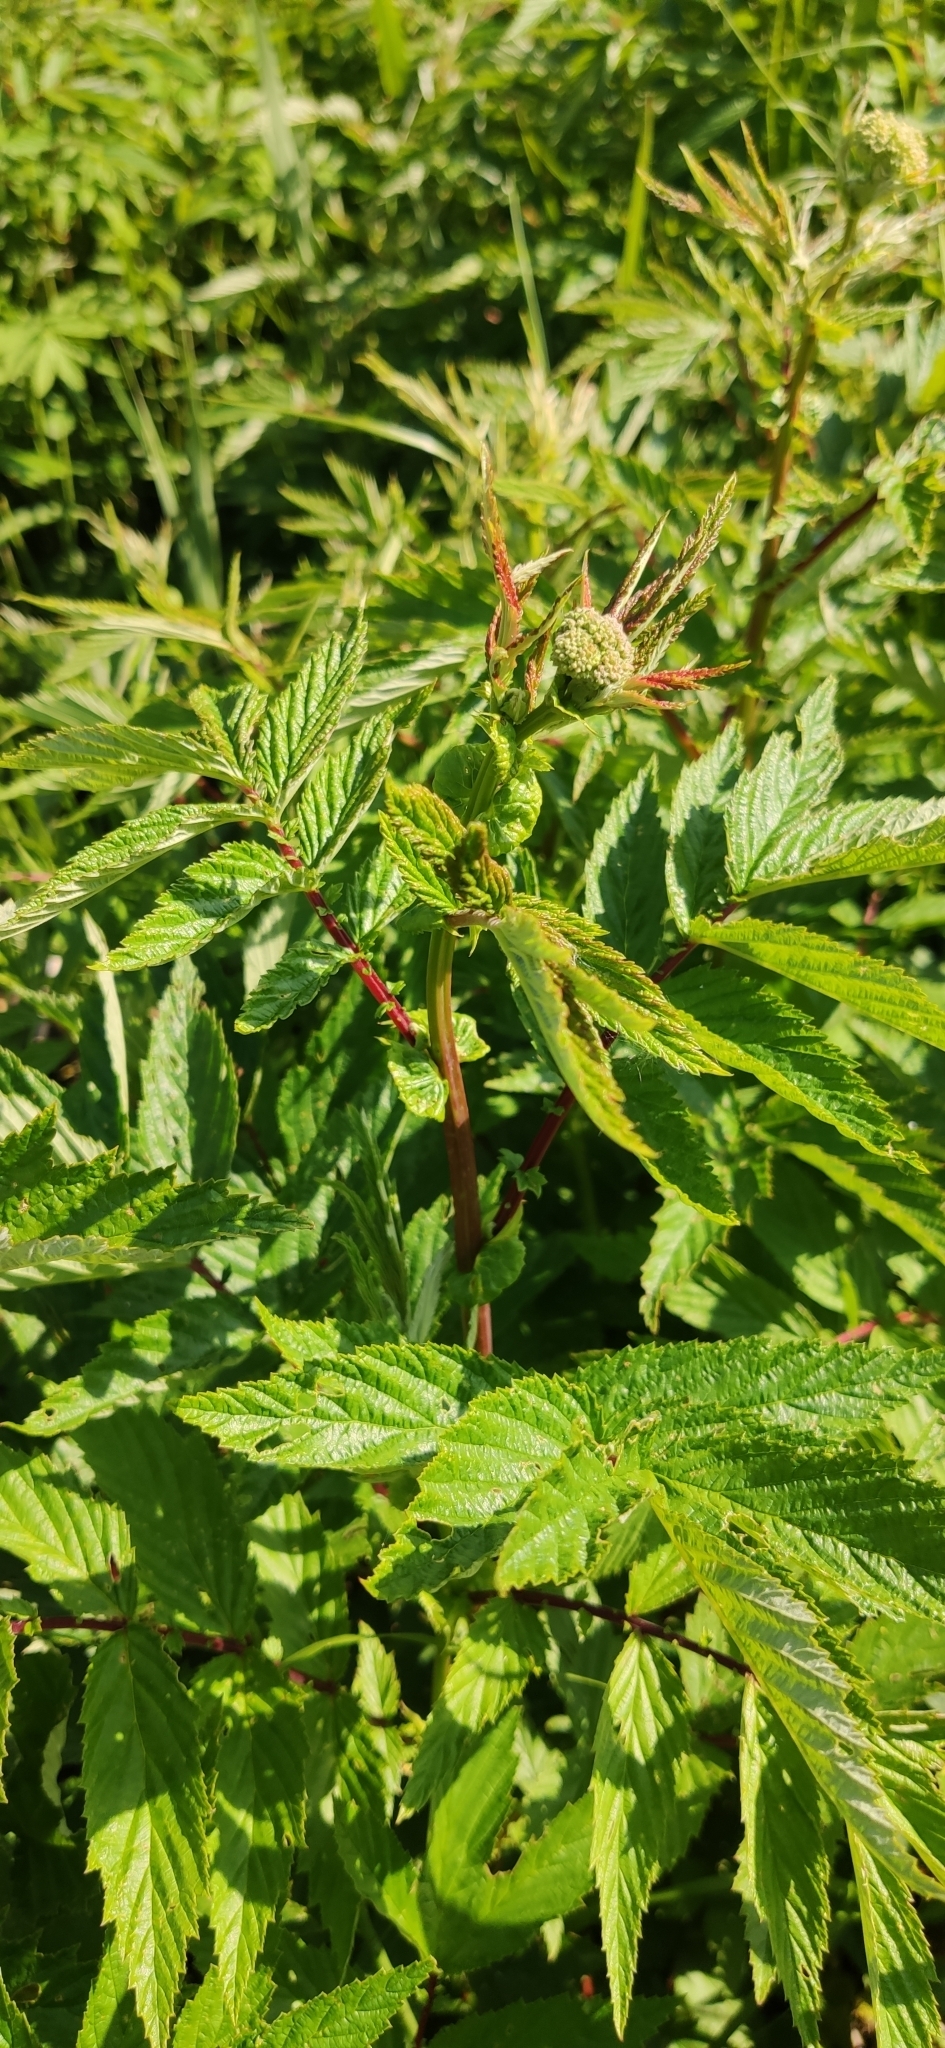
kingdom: Plantae
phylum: Tracheophyta
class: Magnoliopsida
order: Rosales
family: Rosaceae
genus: Filipendula
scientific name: Filipendula ulmaria
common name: Meadowsweet
